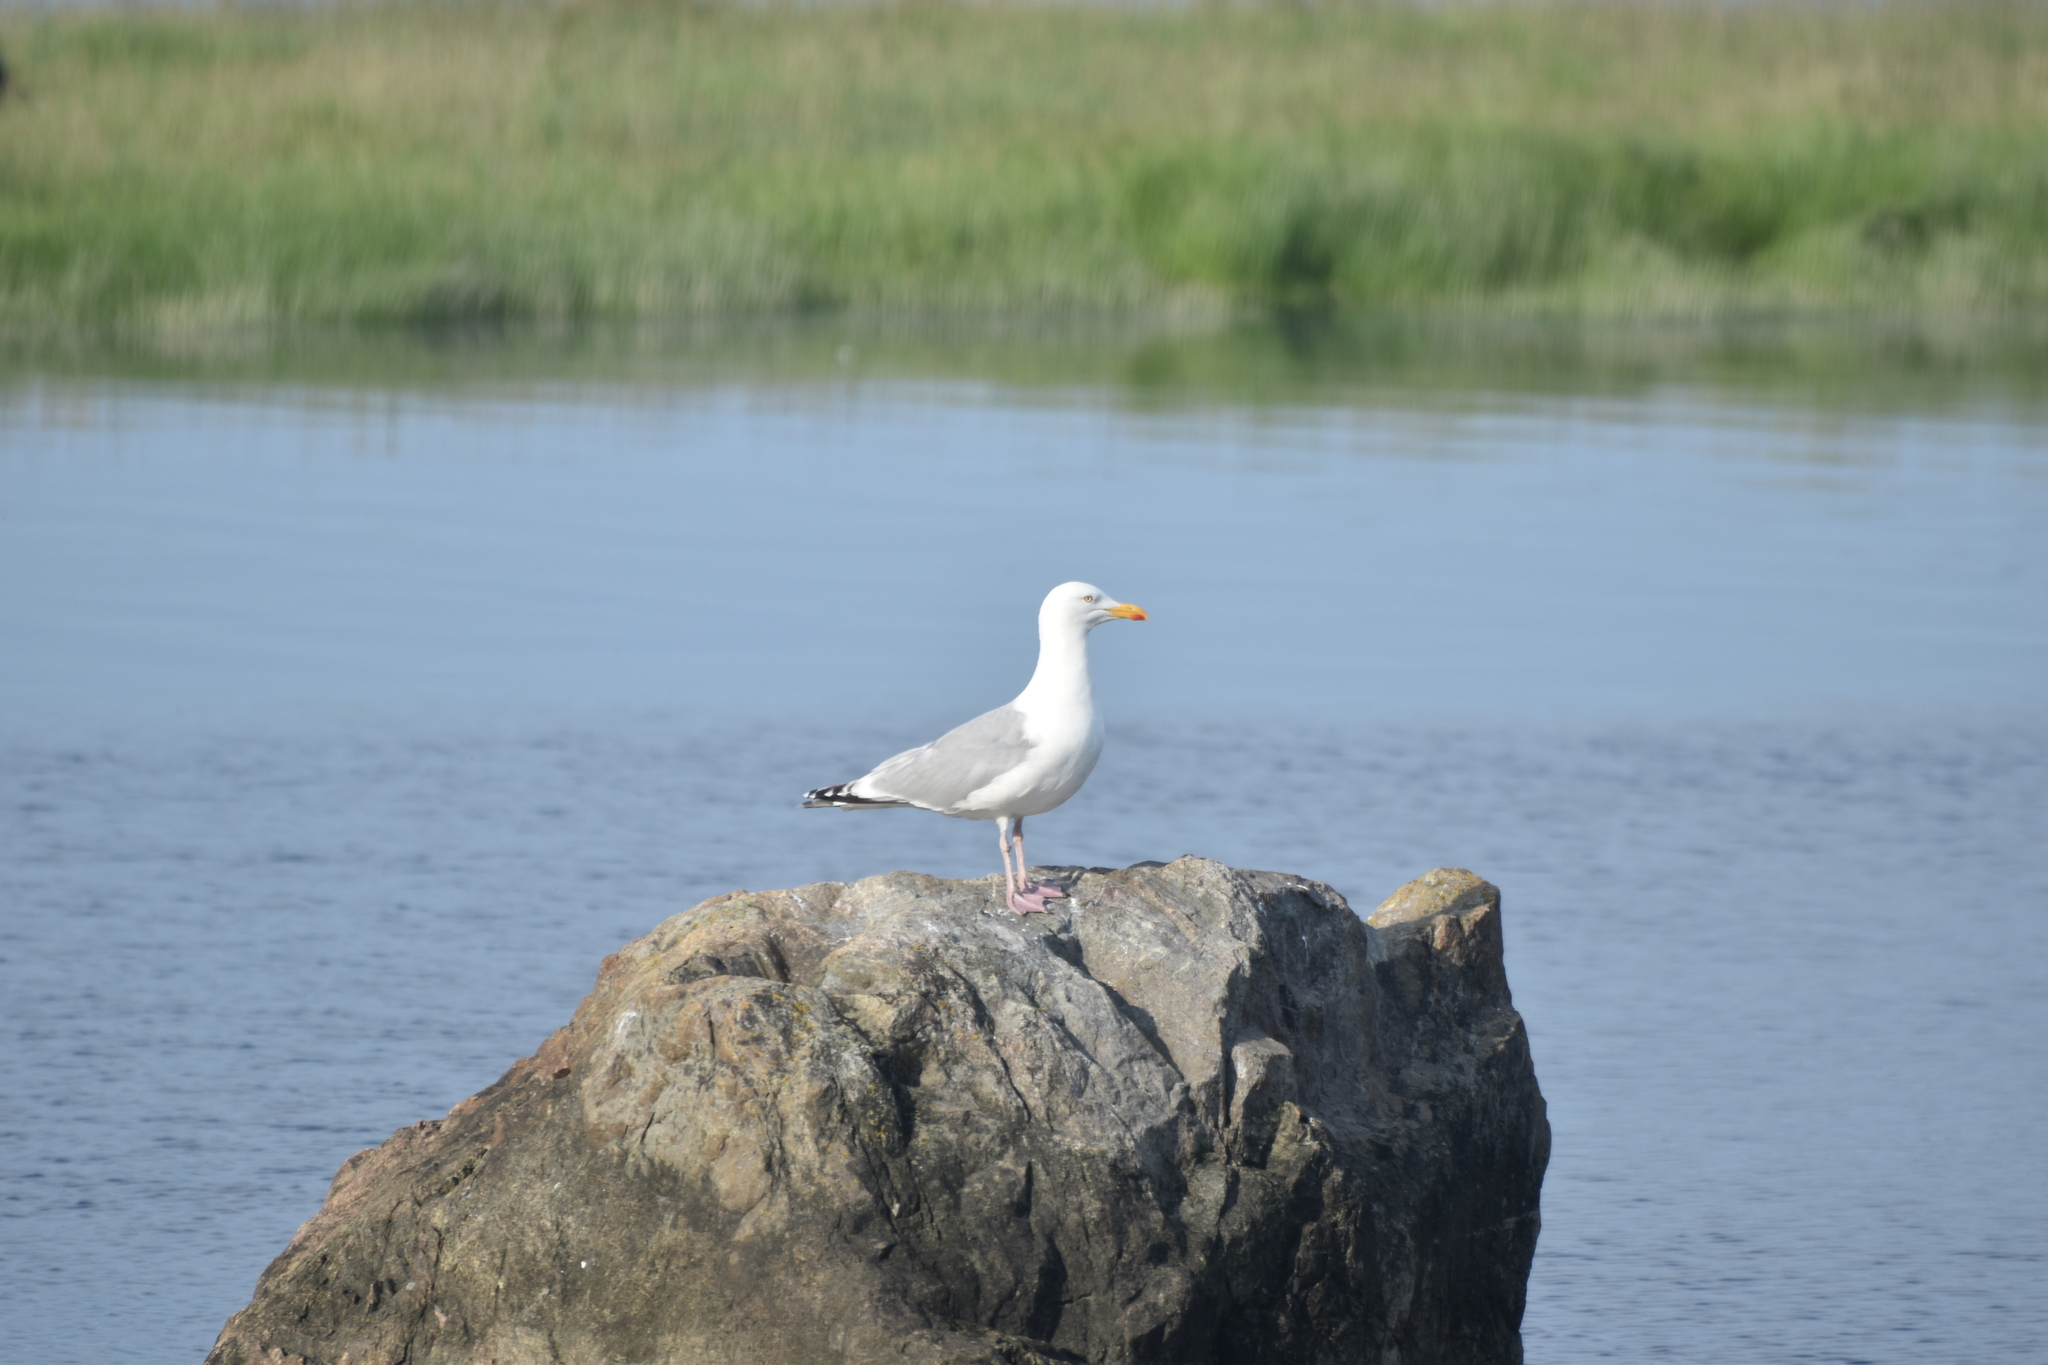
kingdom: Animalia
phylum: Chordata
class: Aves
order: Charadriiformes
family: Laridae
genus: Larus
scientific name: Larus argentatus
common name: Herring gull
